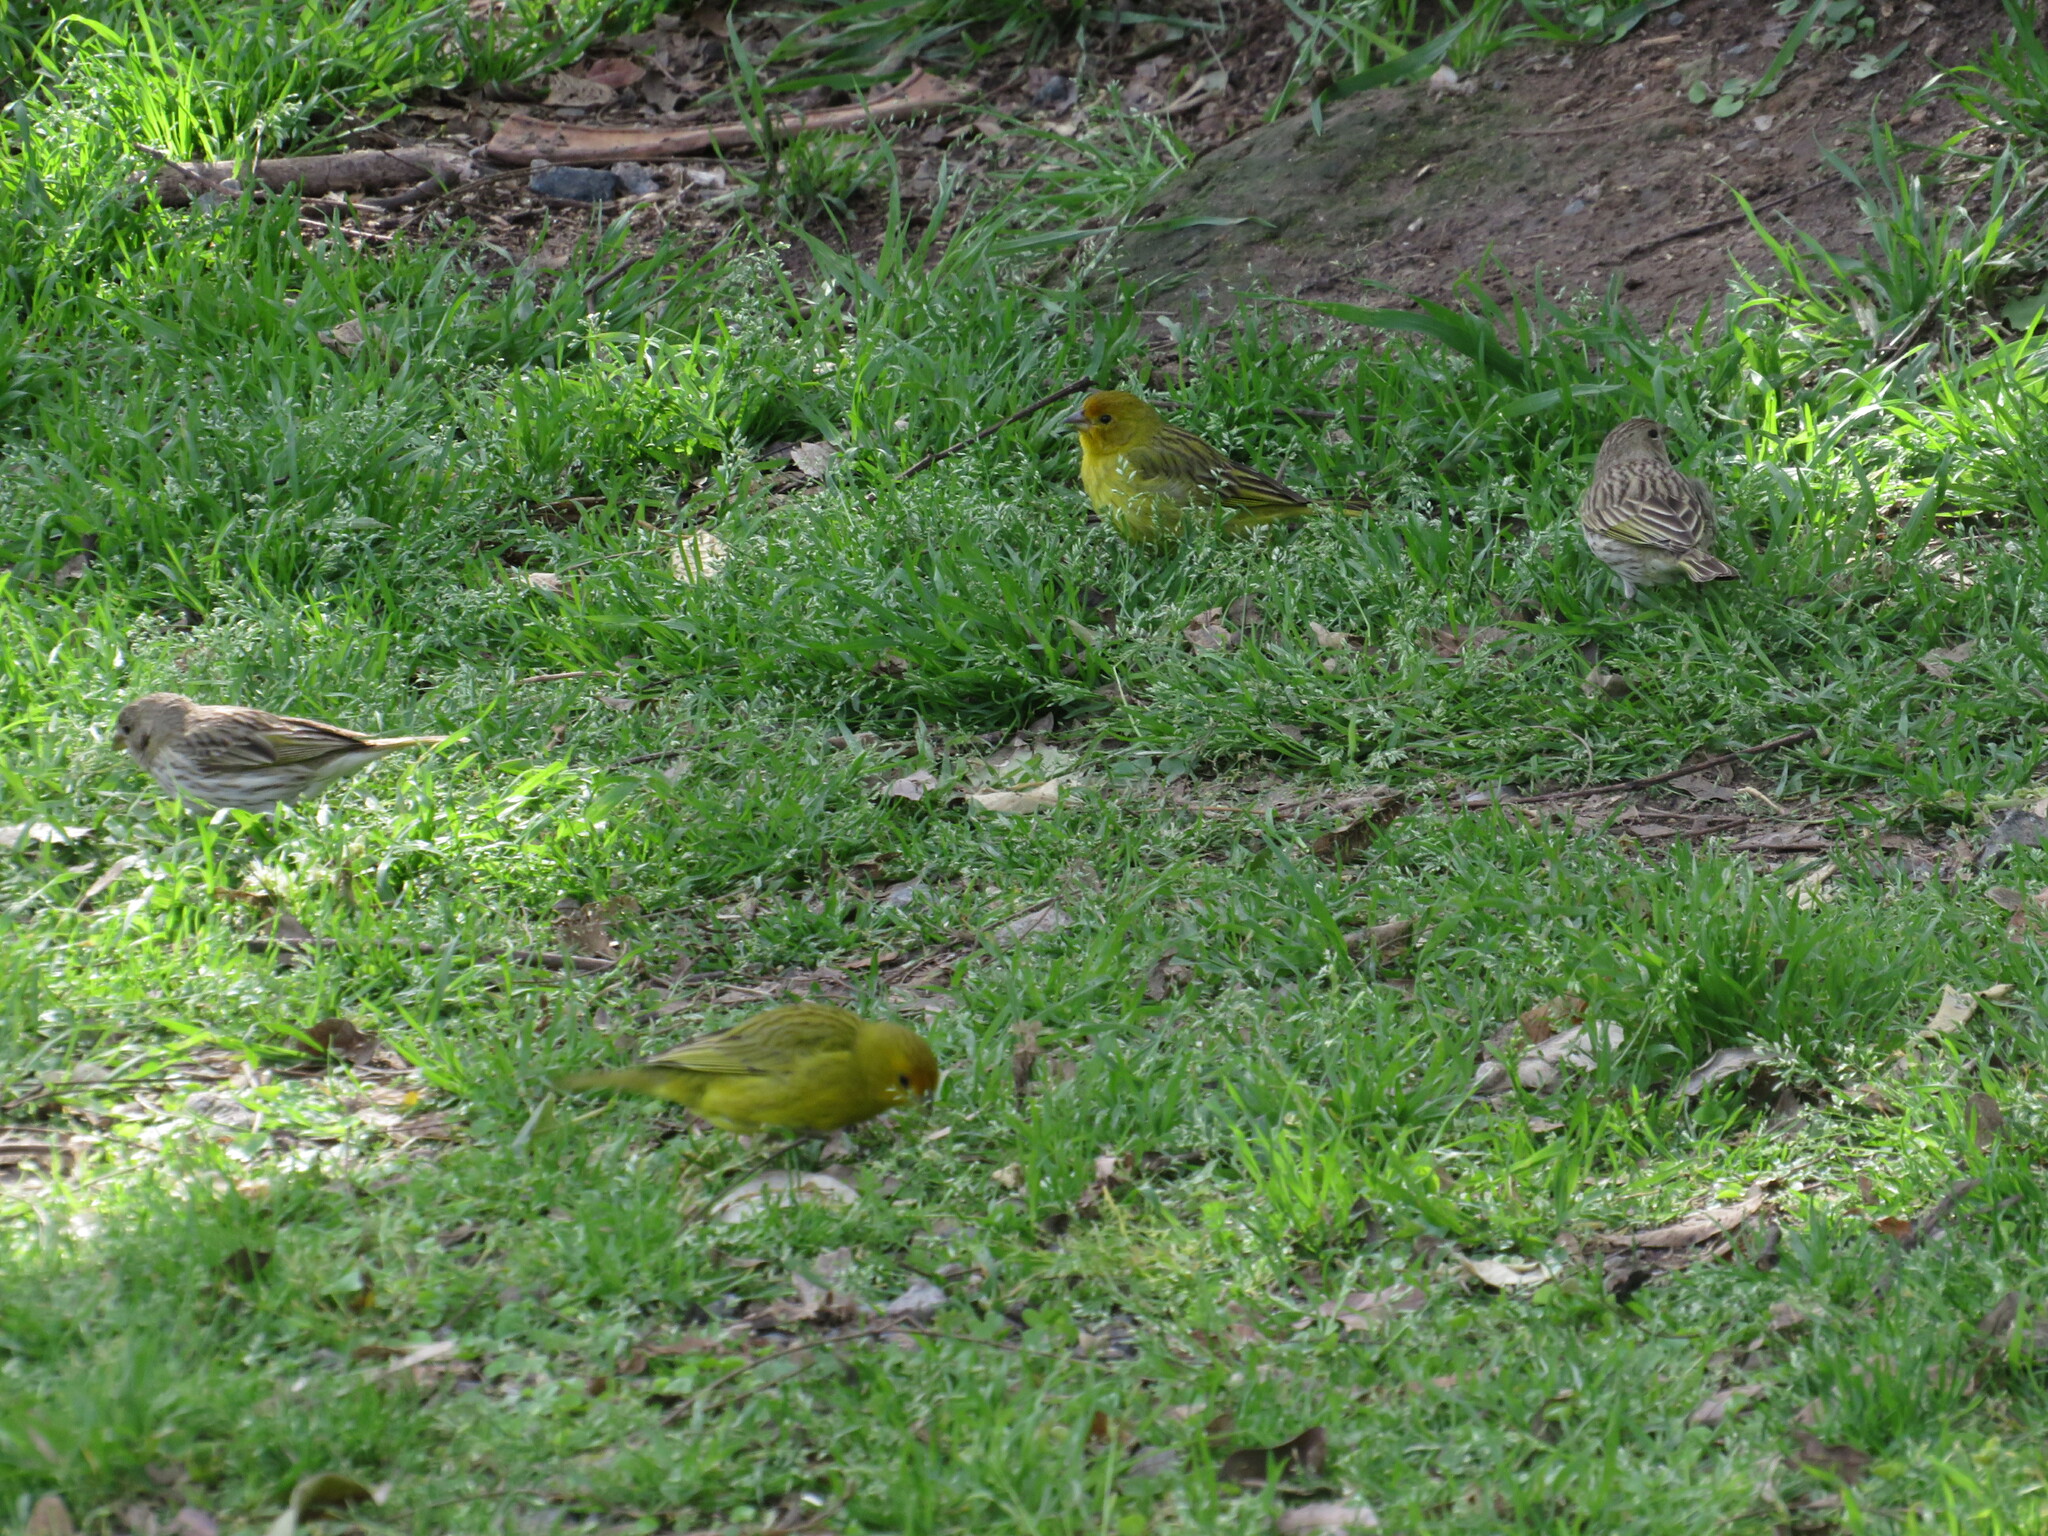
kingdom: Animalia
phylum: Chordata
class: Aves
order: Passeriformes
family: Thraupidae
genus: Sicalis
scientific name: Sicalis flaveola
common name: Saffron finch
